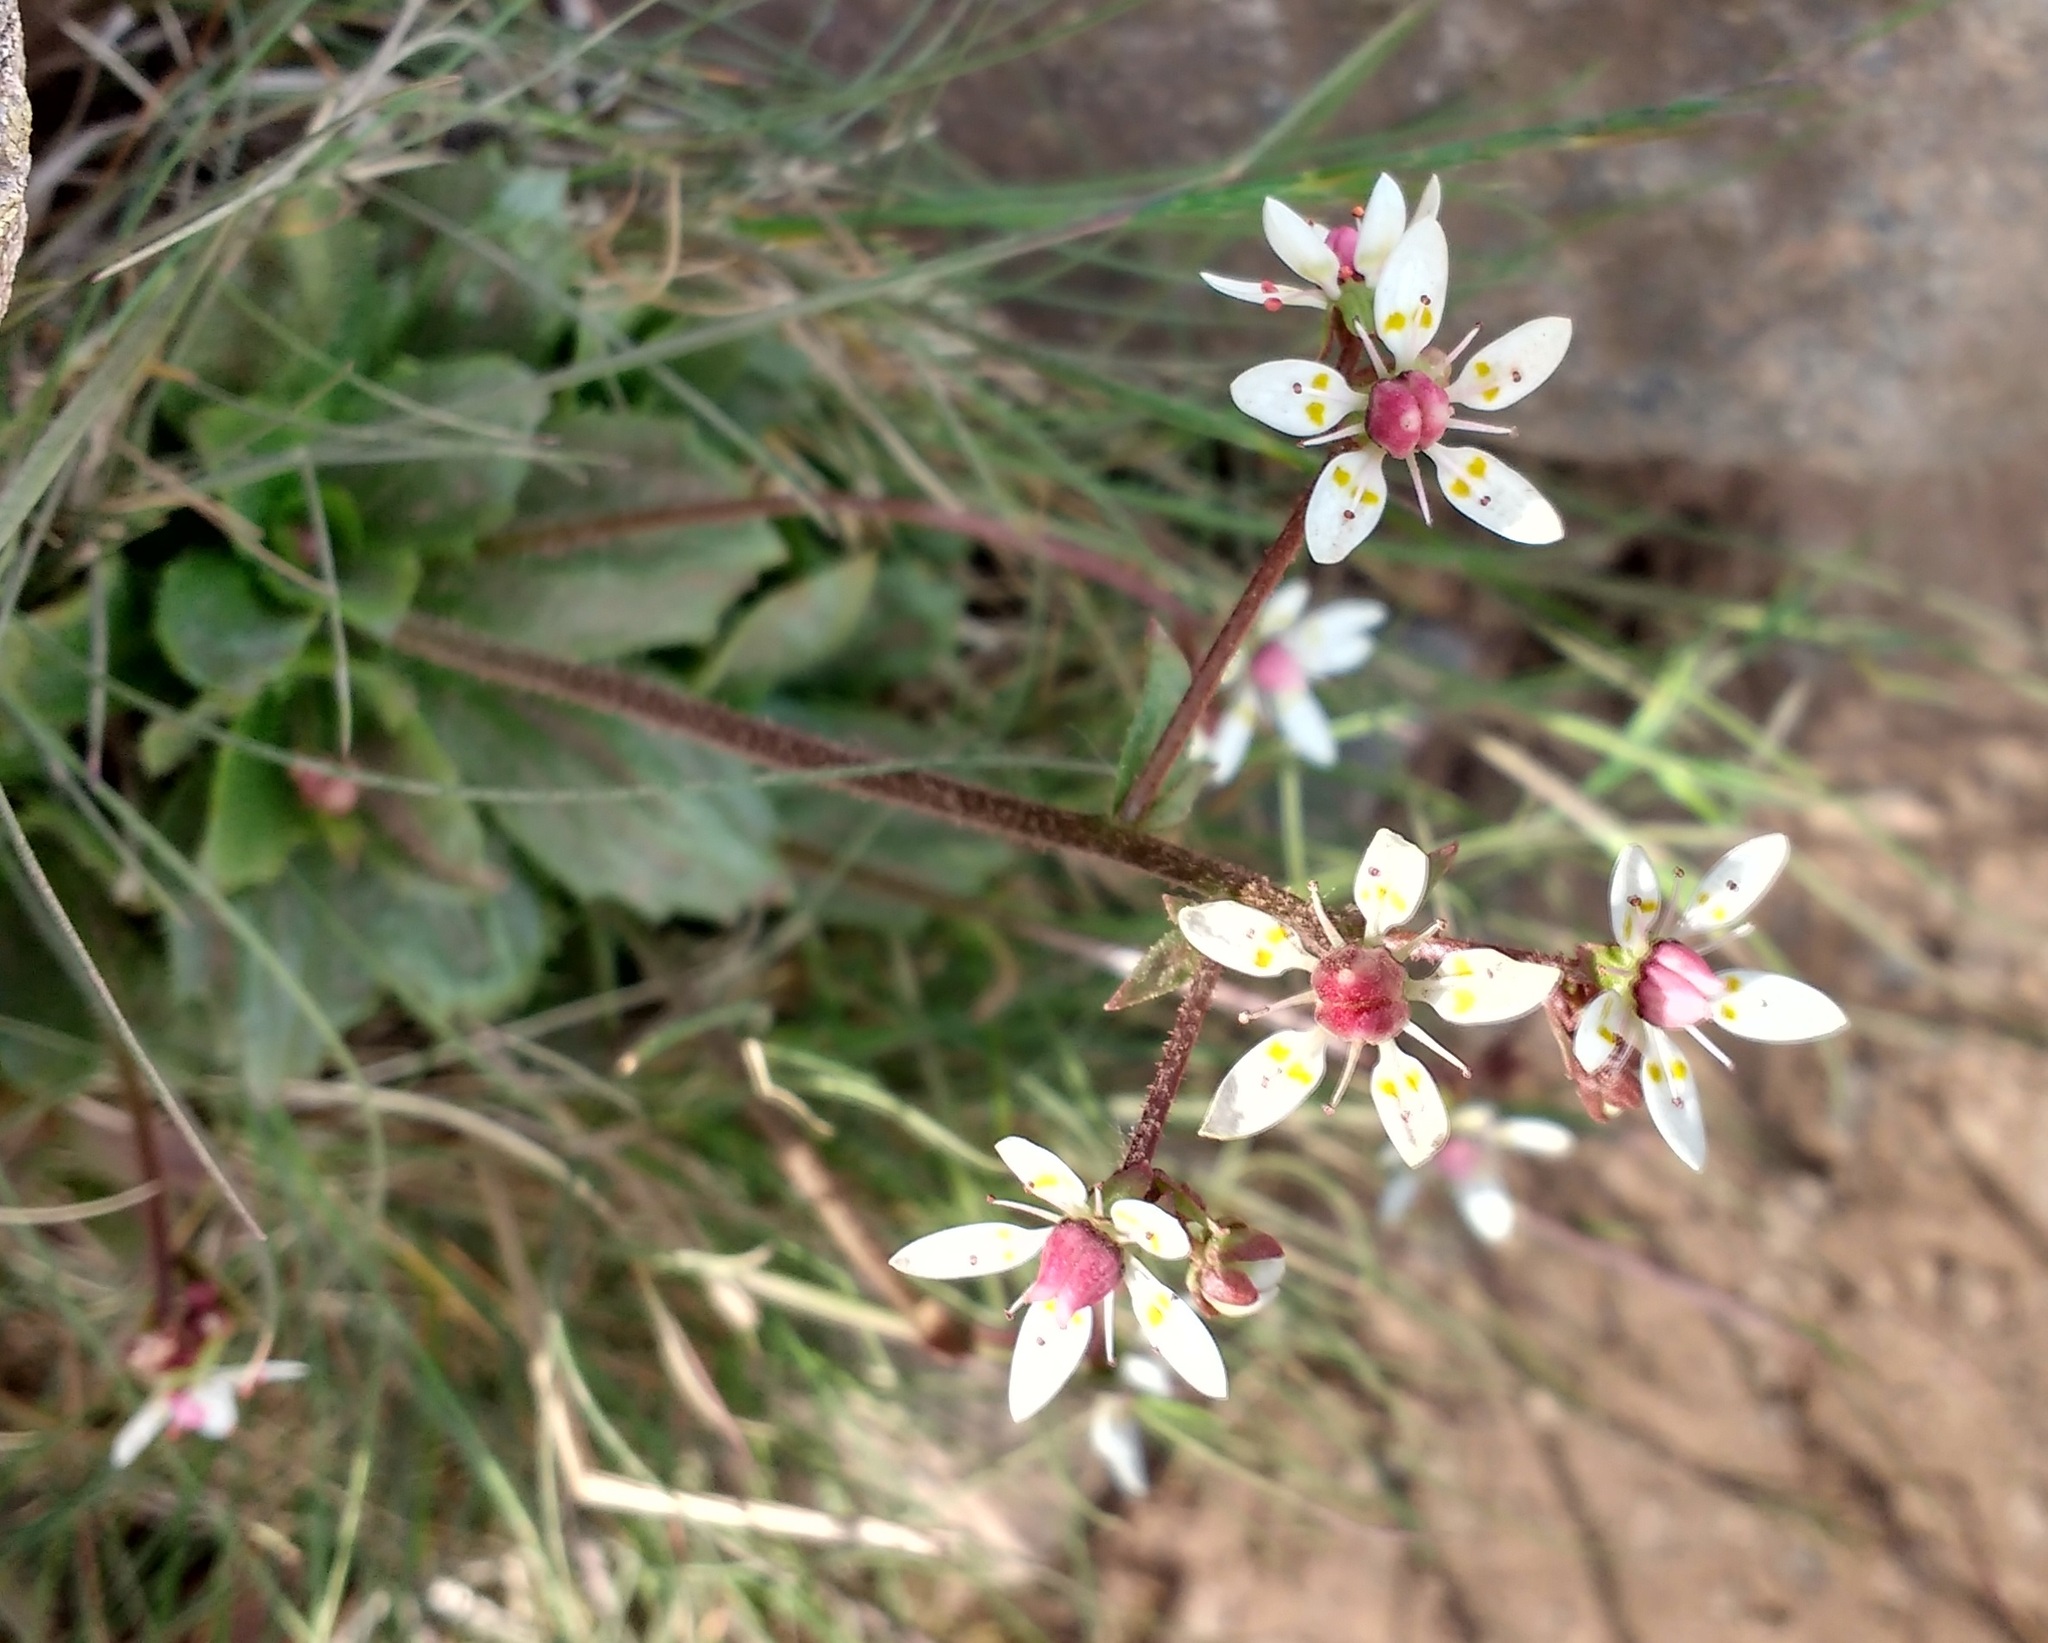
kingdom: Plantae
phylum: Tracheophyta
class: Magnoliopsida
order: Saxifragales
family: Saxifragaceae
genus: Micranthes
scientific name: Micranthes stellaris
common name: Starry saxifrage
